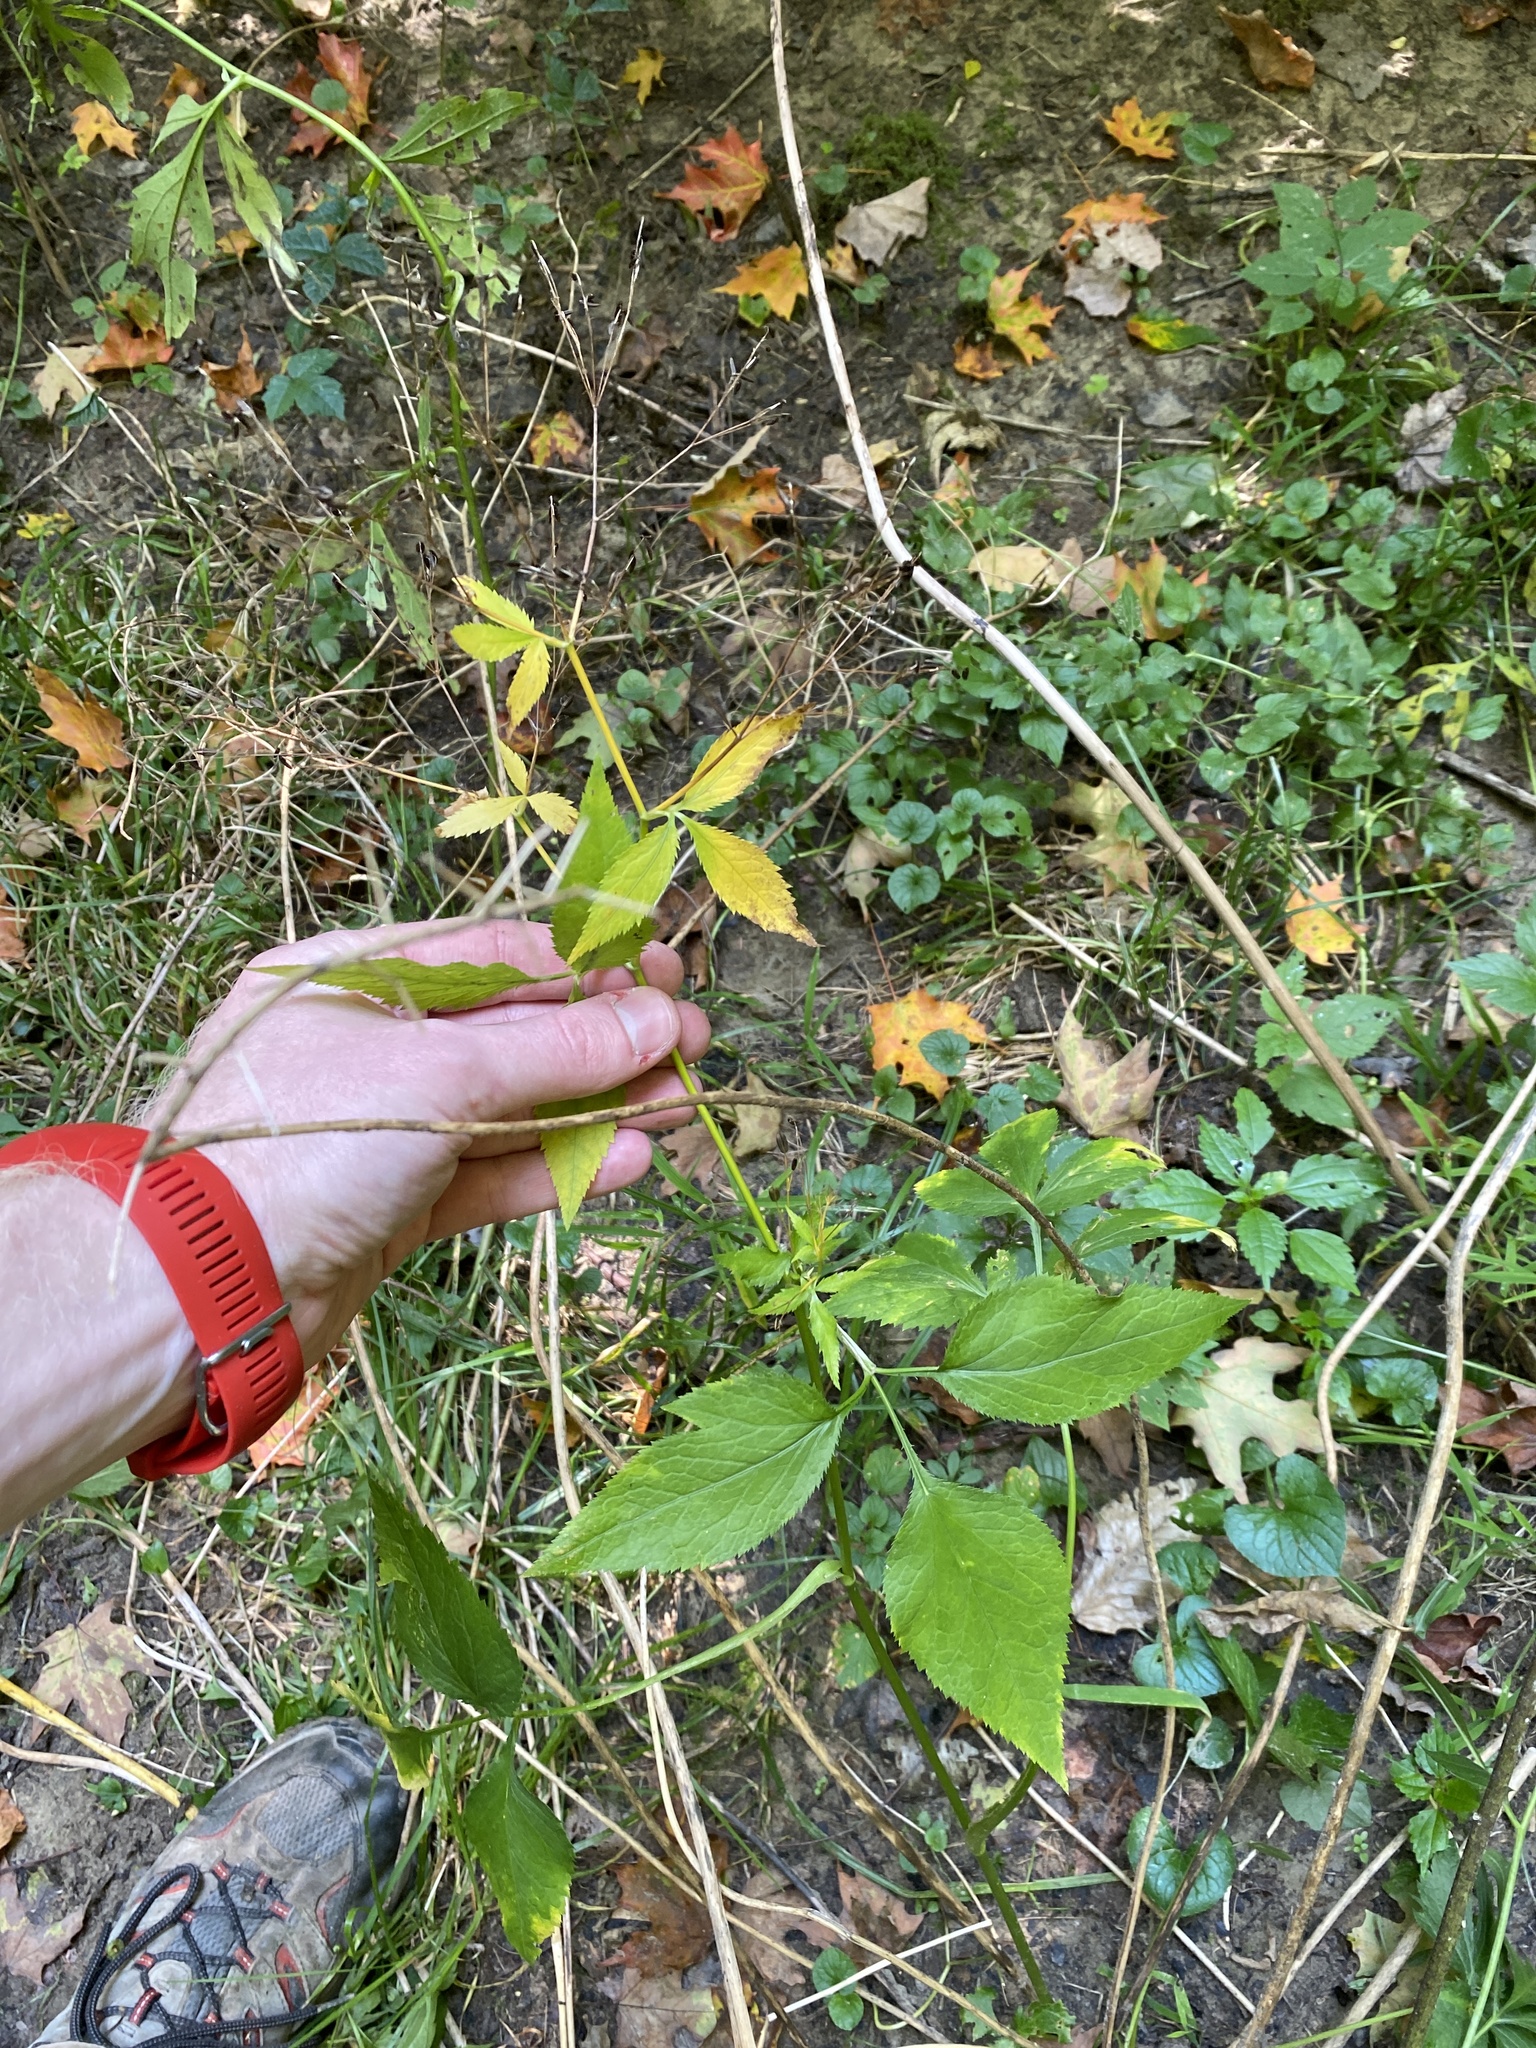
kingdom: Plantae
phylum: Tracheophyta
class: Magnoliopsida
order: Apiales
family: Apiaceae
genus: Cryptotaenia
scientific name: Cryptotaenia canadensis
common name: Honewort
